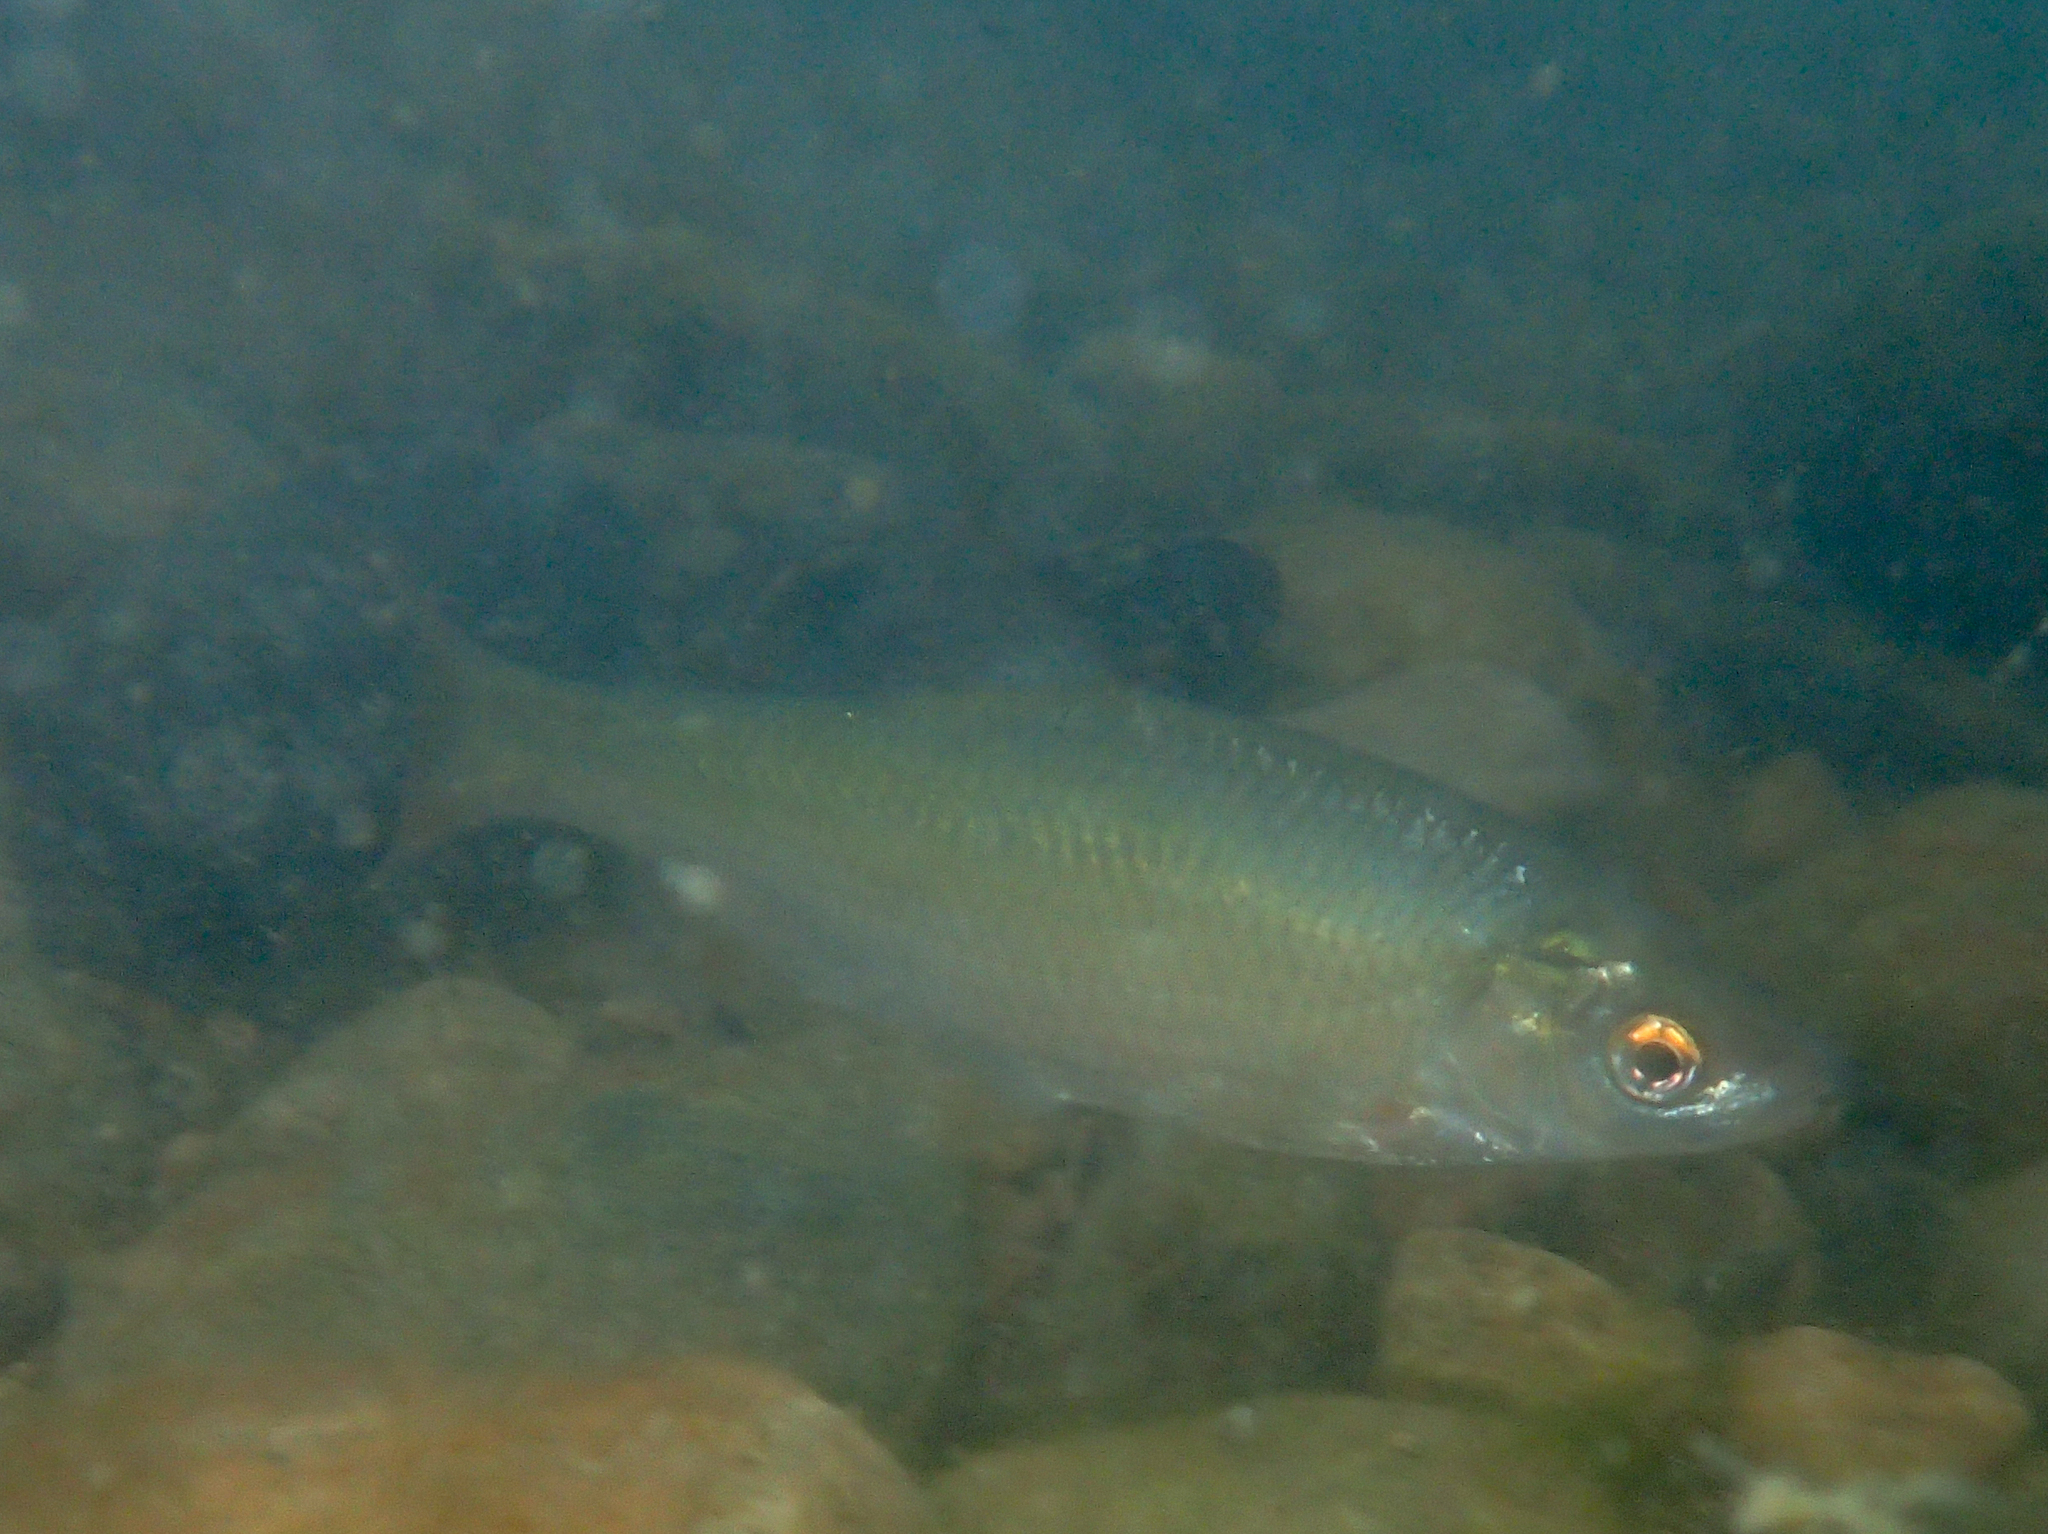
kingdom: Animalia
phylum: Chordata
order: Cypriniformes
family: Cyprinidae
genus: Rutilus
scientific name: Rutilus rutilus
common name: Roach
